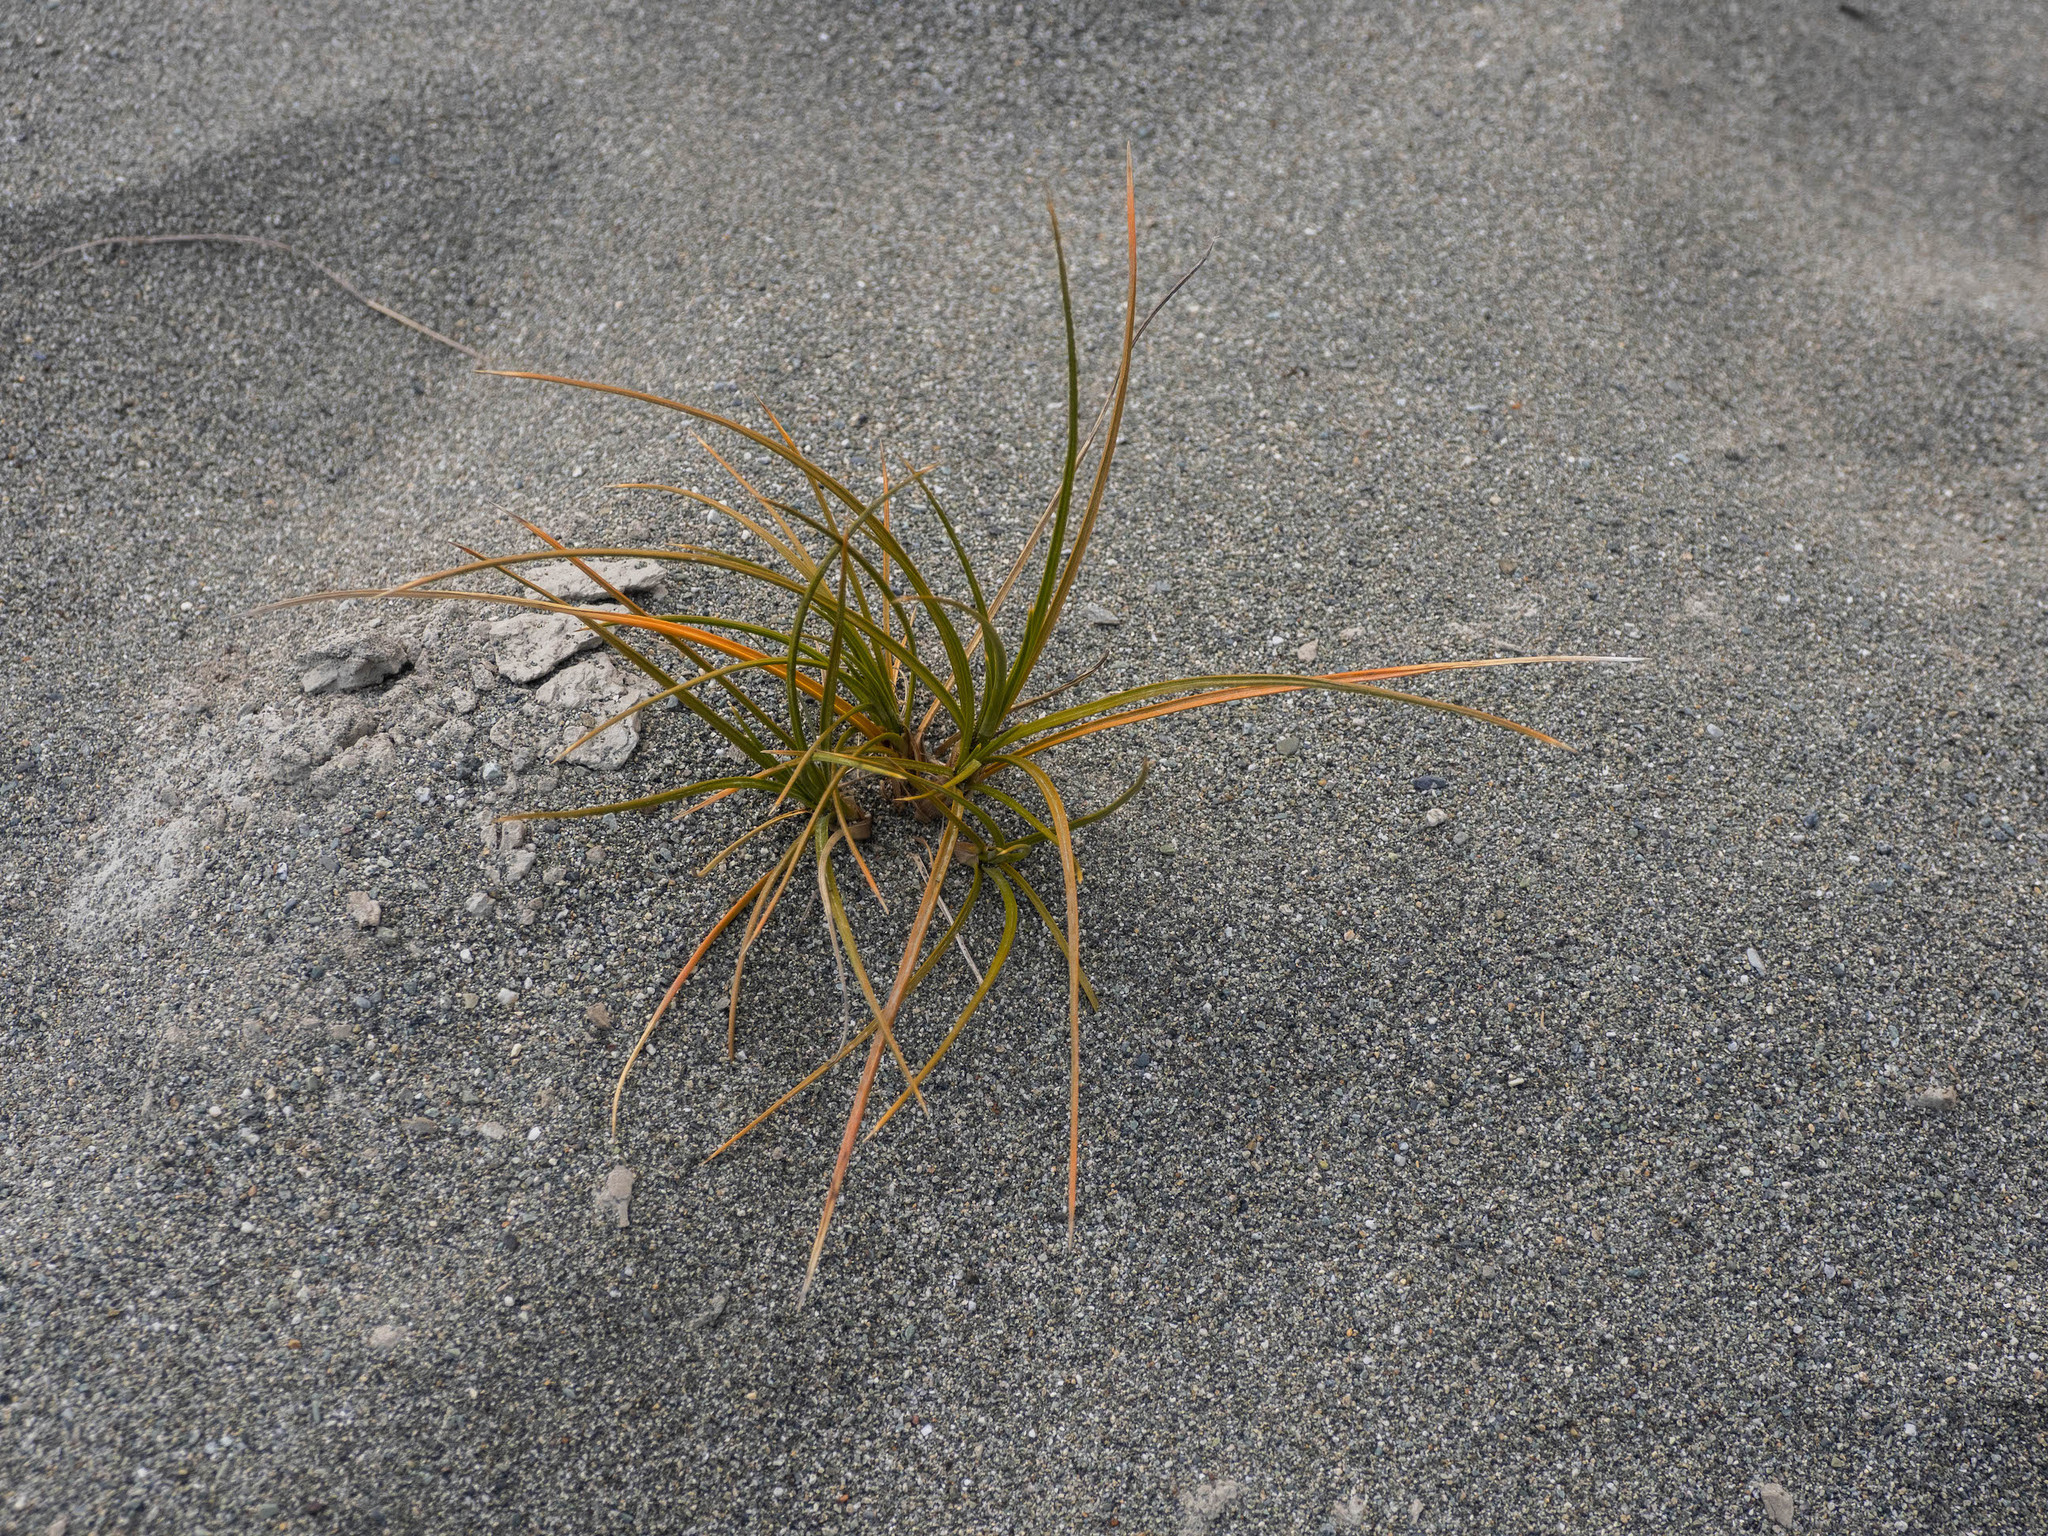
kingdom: Plantae
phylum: Tracheophyta
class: Liliopsida
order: Poales
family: Cyperaceae
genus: Ficinia
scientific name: Ficinia spiralis
